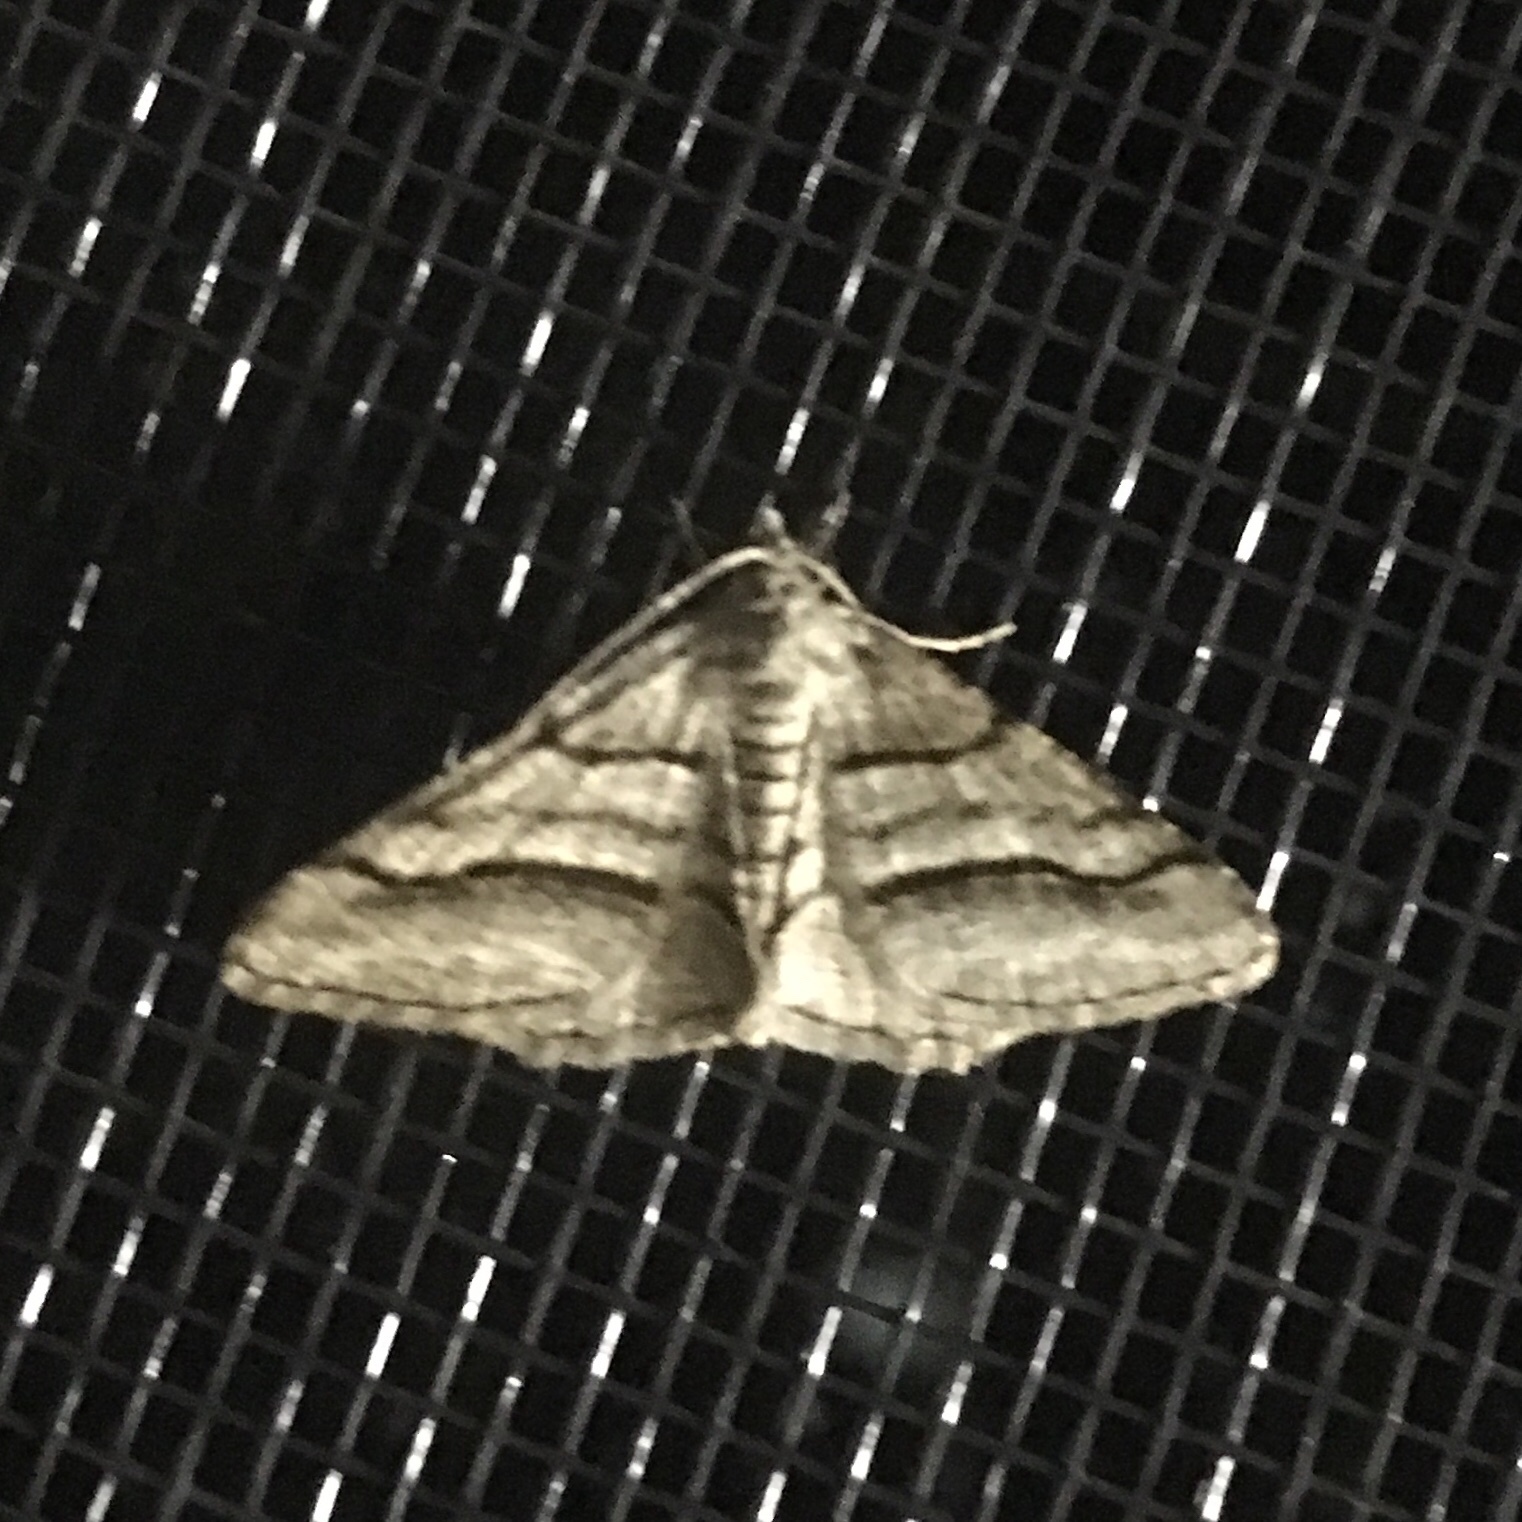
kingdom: Animalia
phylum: Arthropoda
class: Insecta
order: Lepidoptera
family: Geometridae
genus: Digrammia
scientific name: Digrammia continuata
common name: Curve-lined angle
